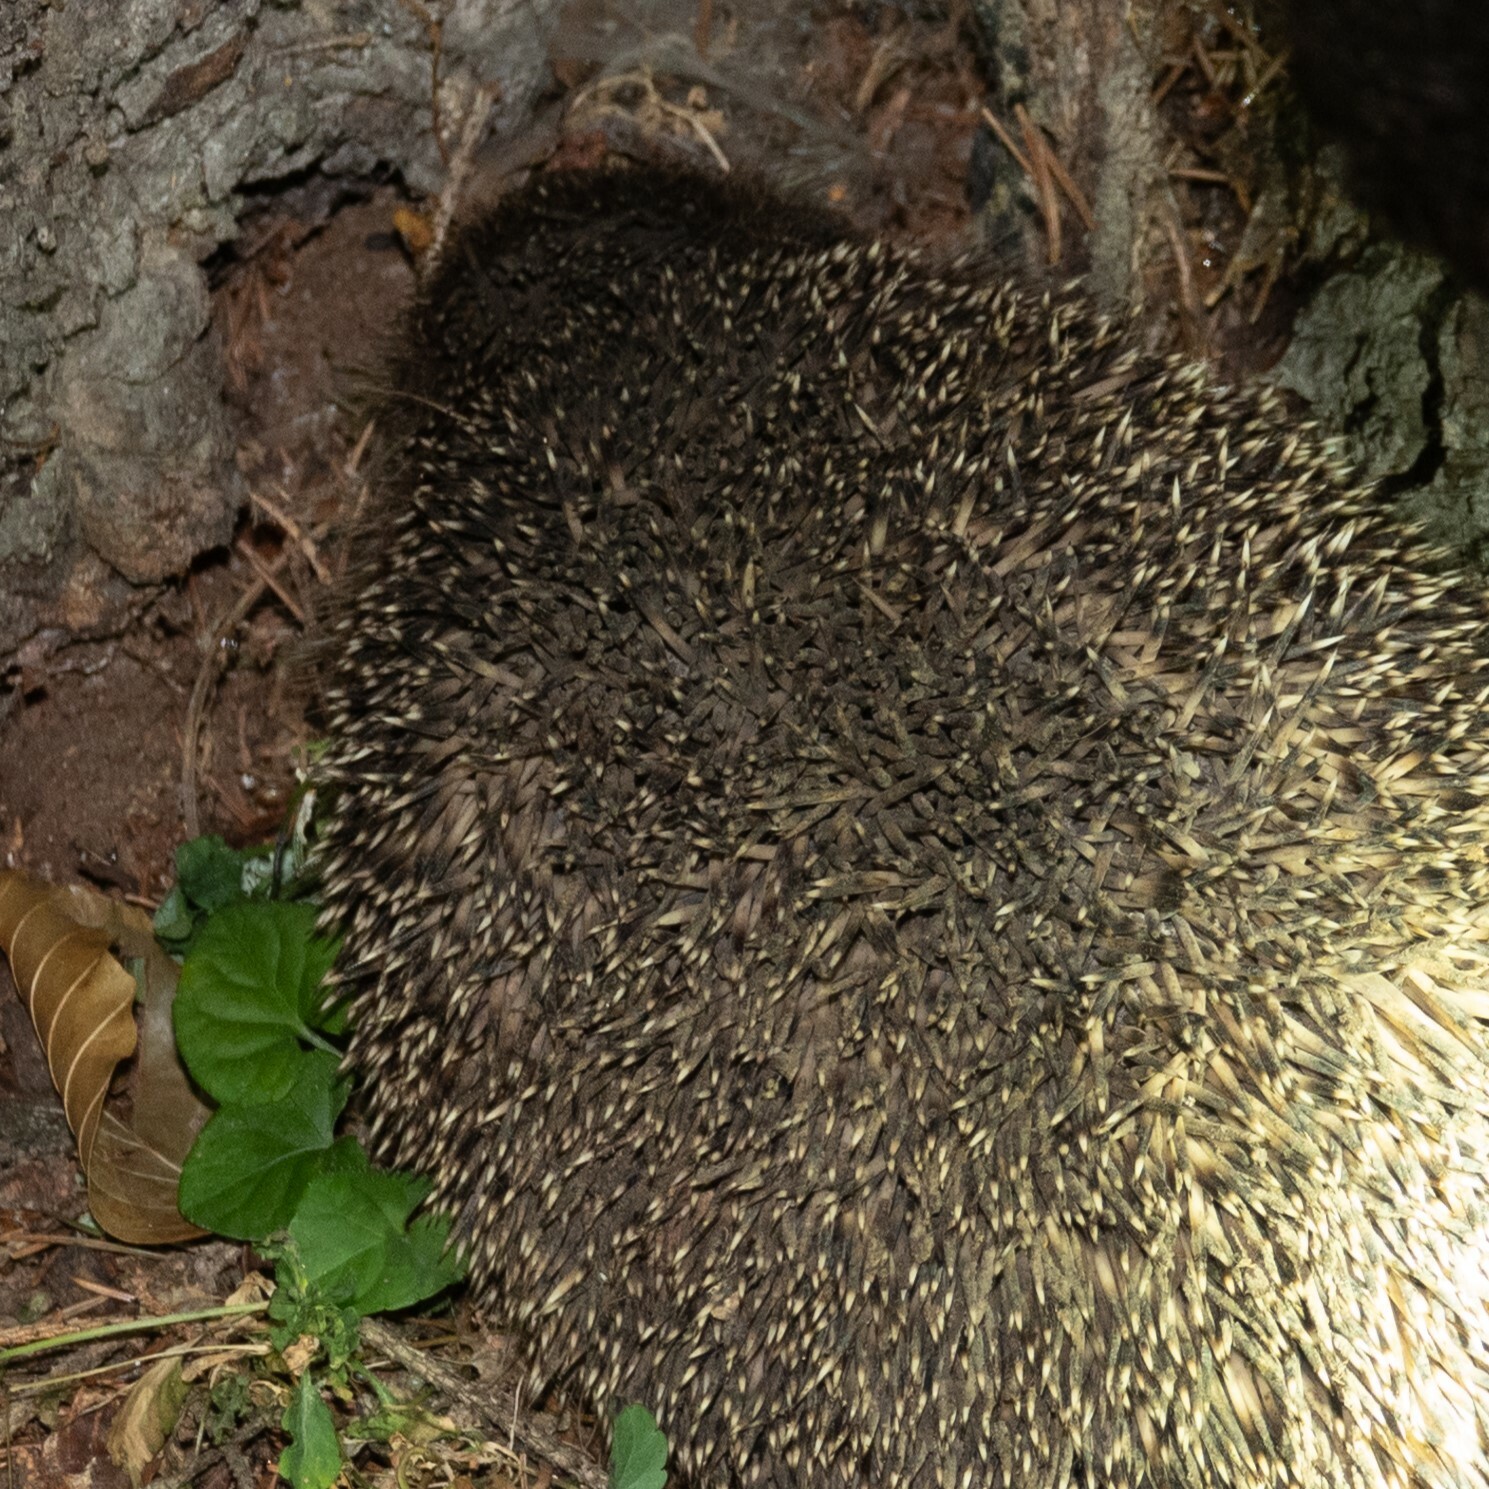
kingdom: Animalia
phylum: Chordata
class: Mammalia
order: Erinaceomorpha
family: Erinaceidae
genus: Erinaceus
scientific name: Erinaceus roumanicus
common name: Northern white-breasted hedgehog
